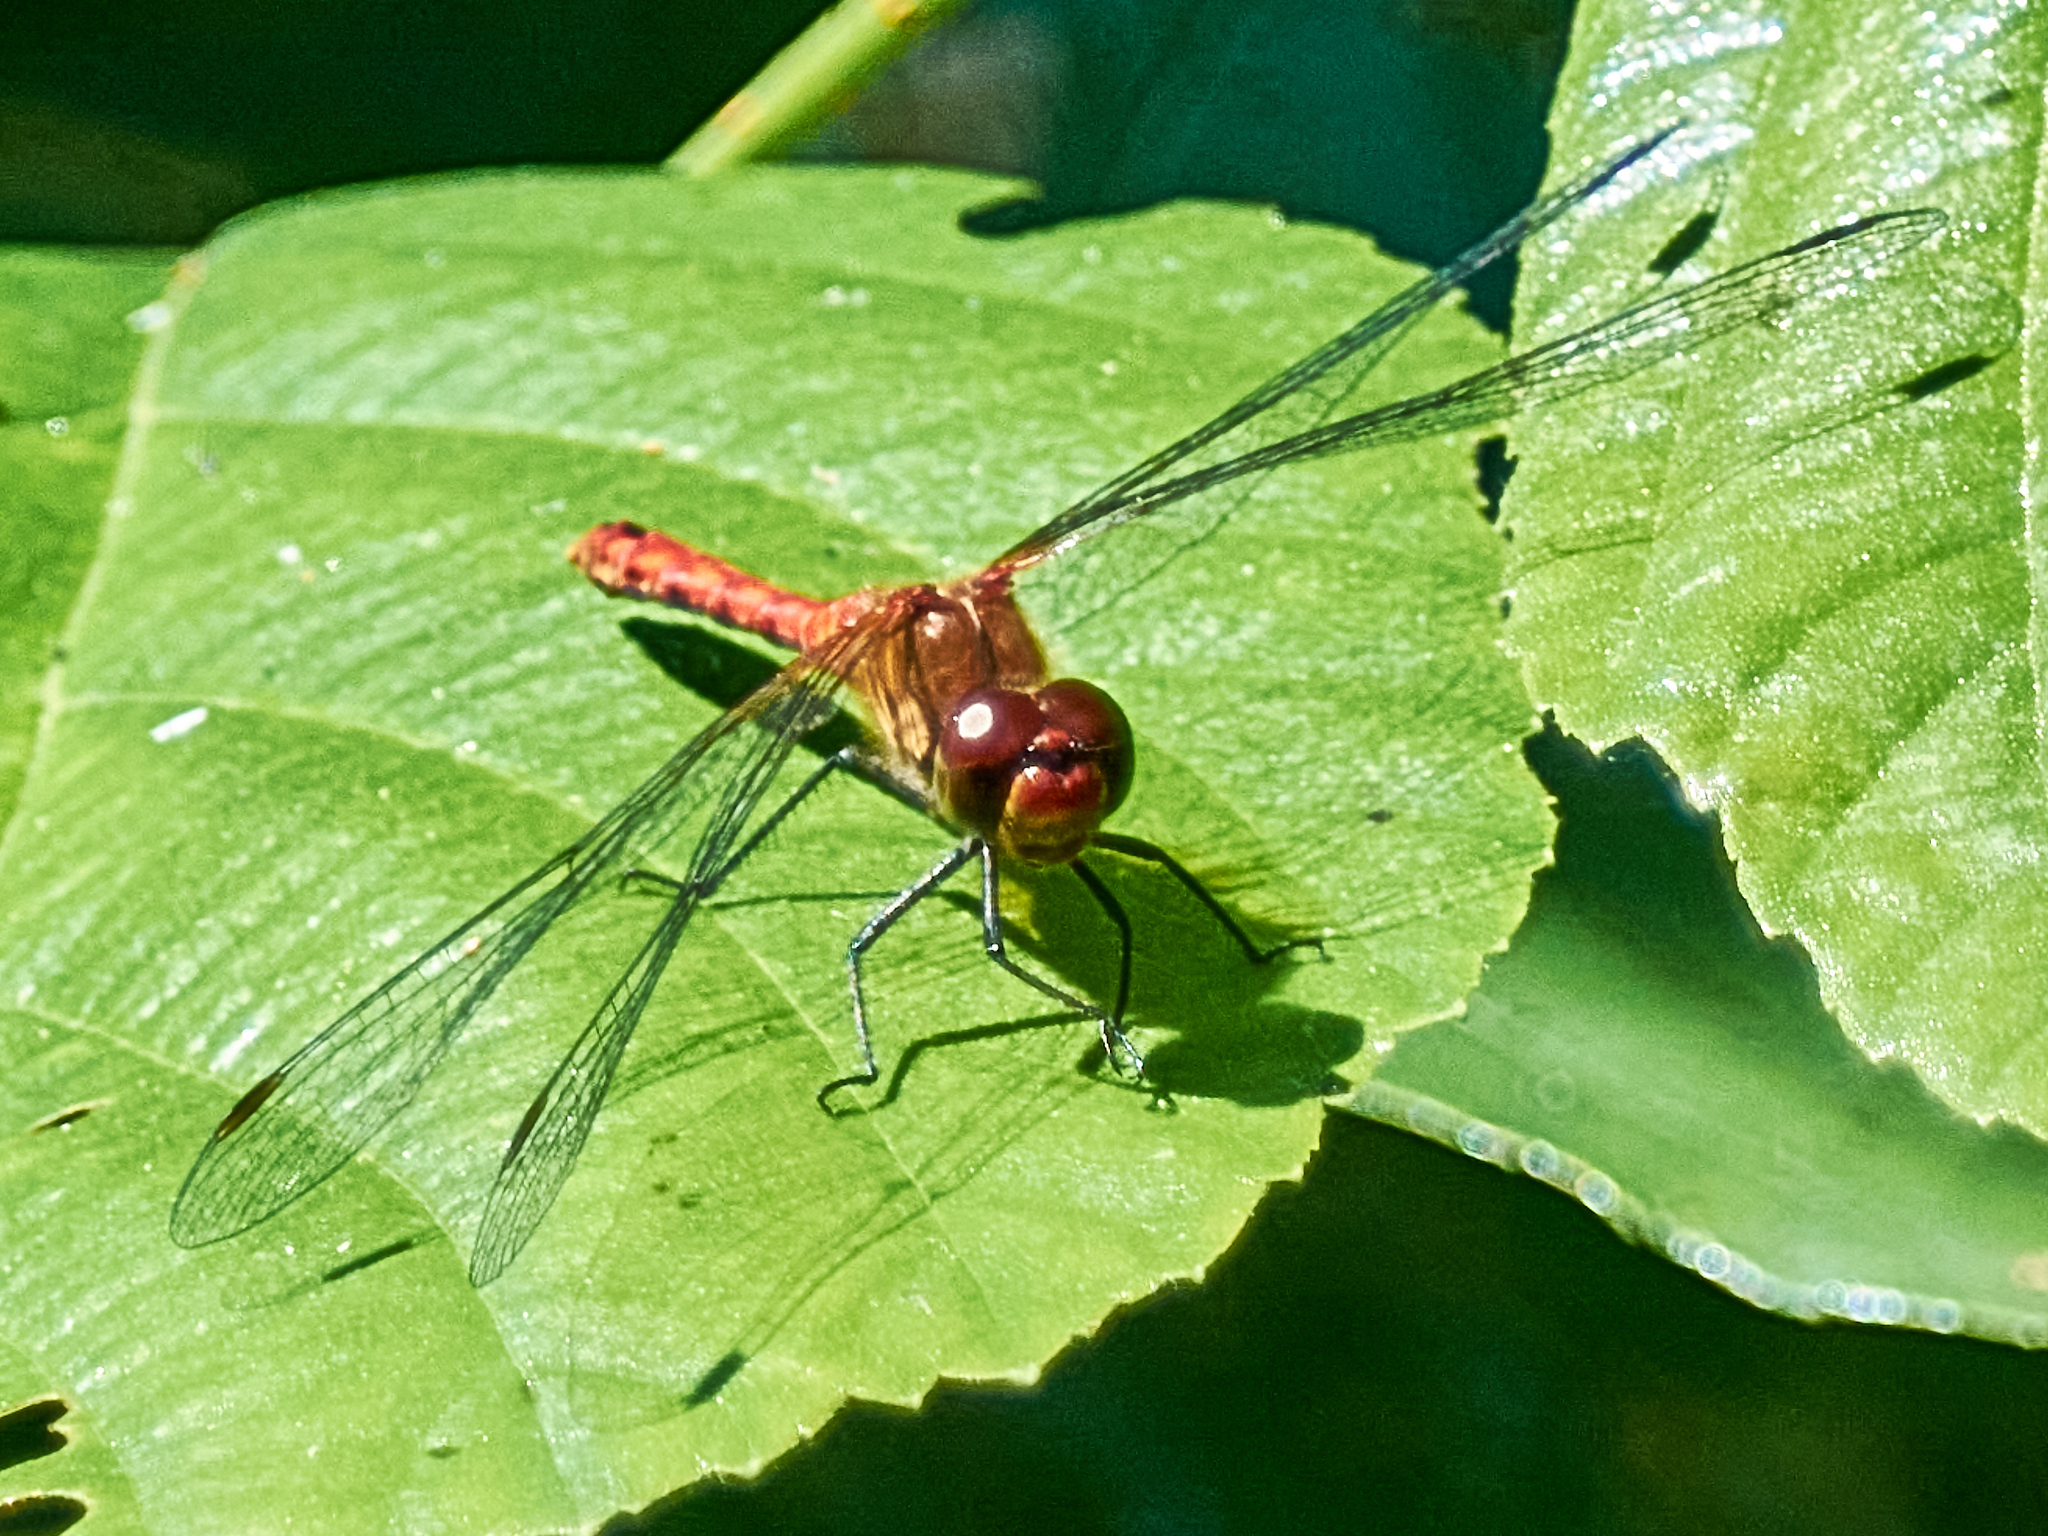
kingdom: Animalia
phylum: Arthropoda
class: Insecta
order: Odonata
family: Libellulidae
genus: Sympetrum
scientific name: Sympetrum sanguineum
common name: Ruddy darter
